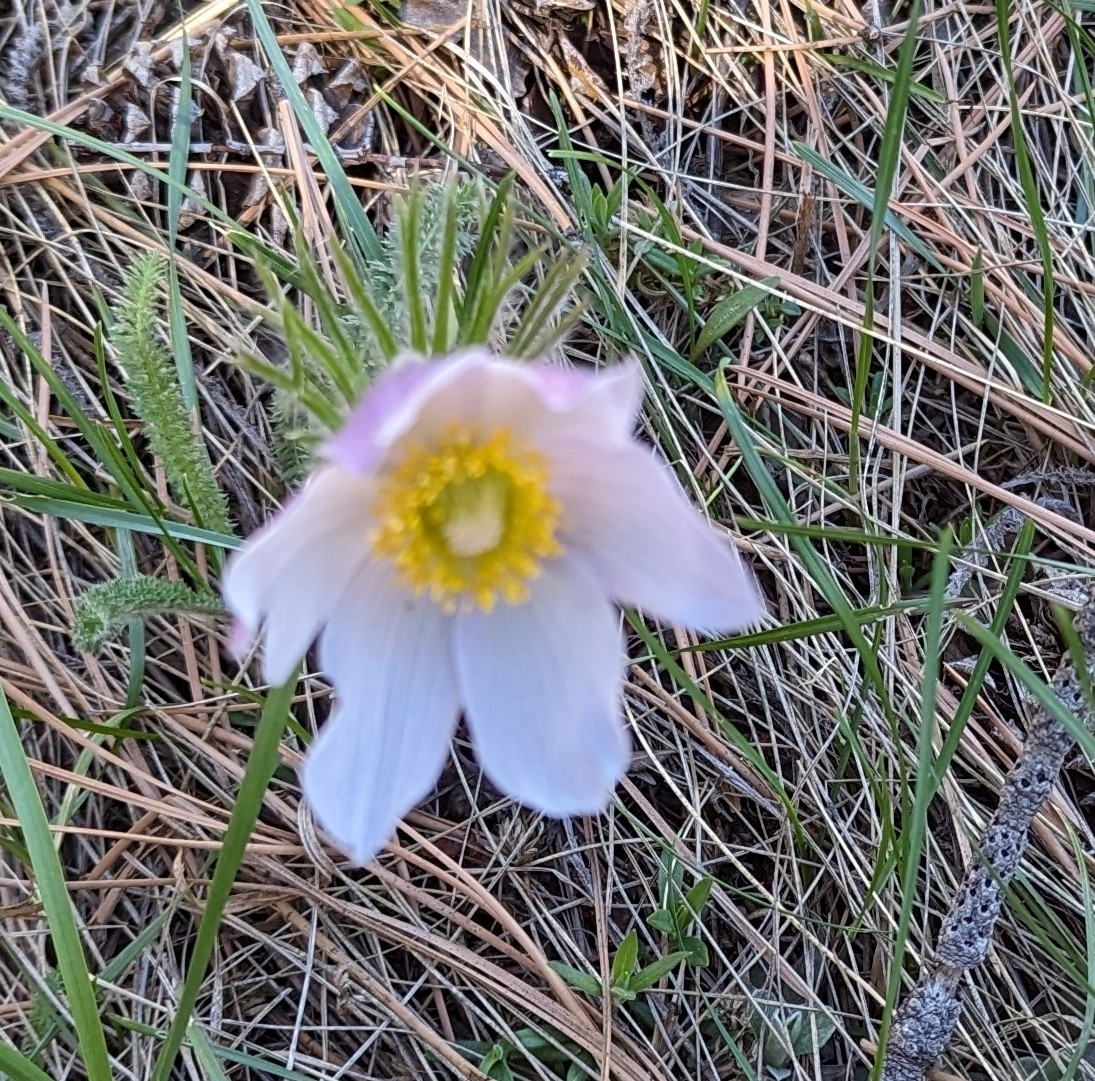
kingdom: Plantae
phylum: Tracheophyta
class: Magnoliopsida
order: Ranunculales
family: Ranunculaceae
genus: Pulsatilla
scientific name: Pulsatilla nuttalliana
